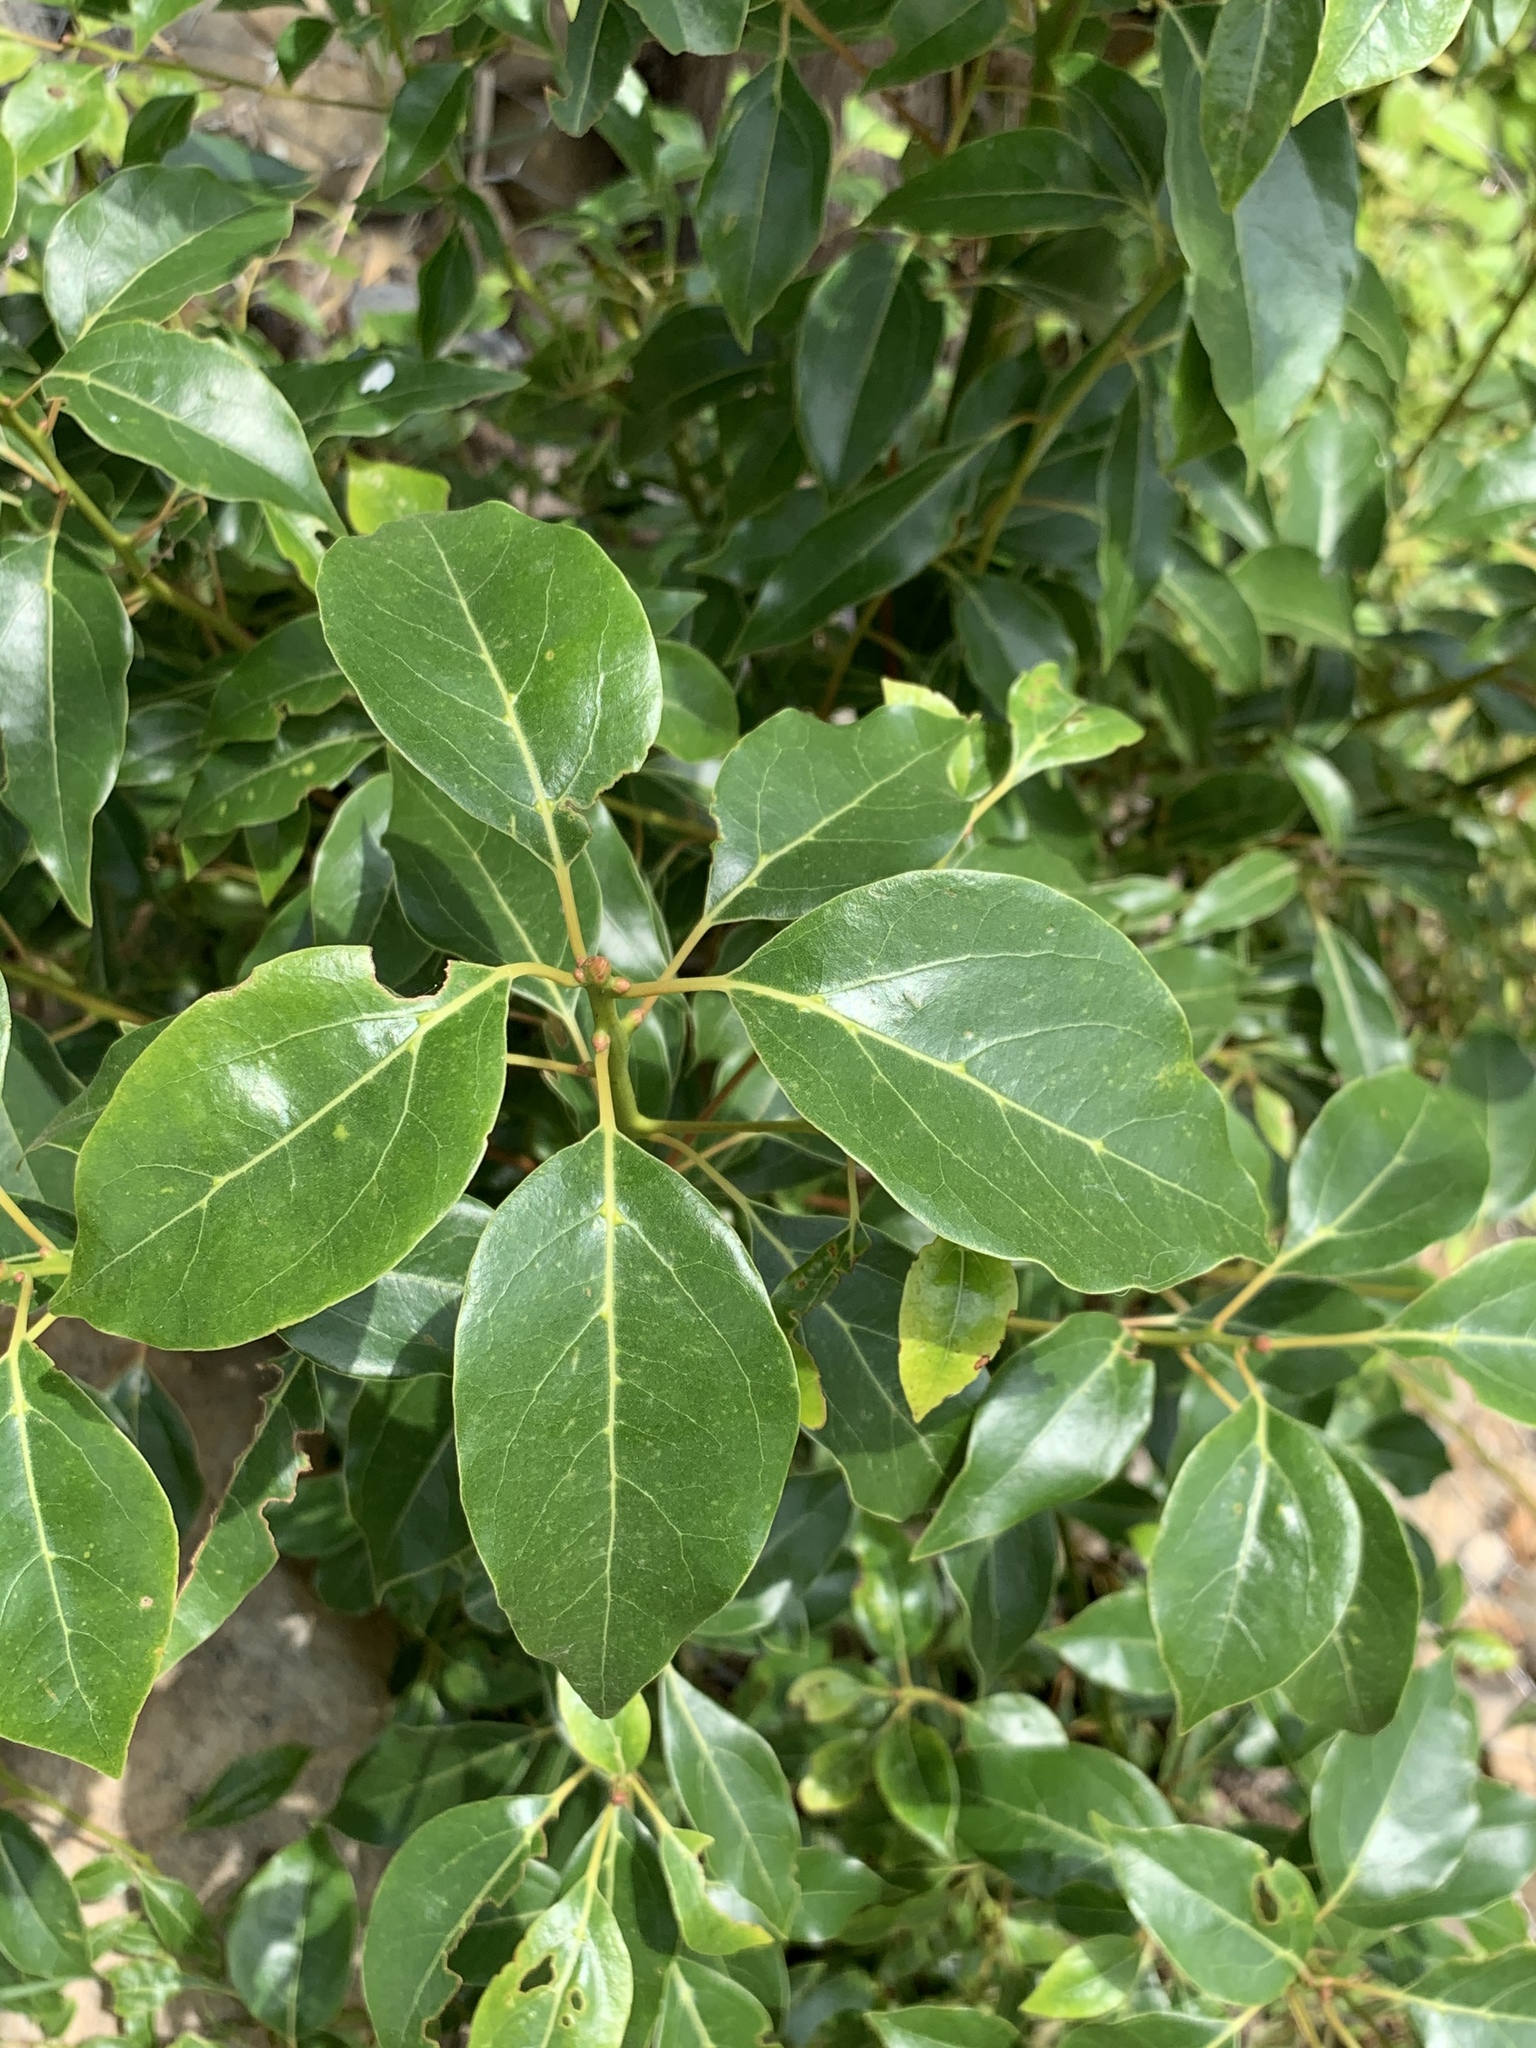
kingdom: Plantae
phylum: Tracheophyta
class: Magnoliopsida
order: Laurales
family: Lauraceae
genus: Cinnamomum
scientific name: Cinnamomum camphora
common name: Camphortree
